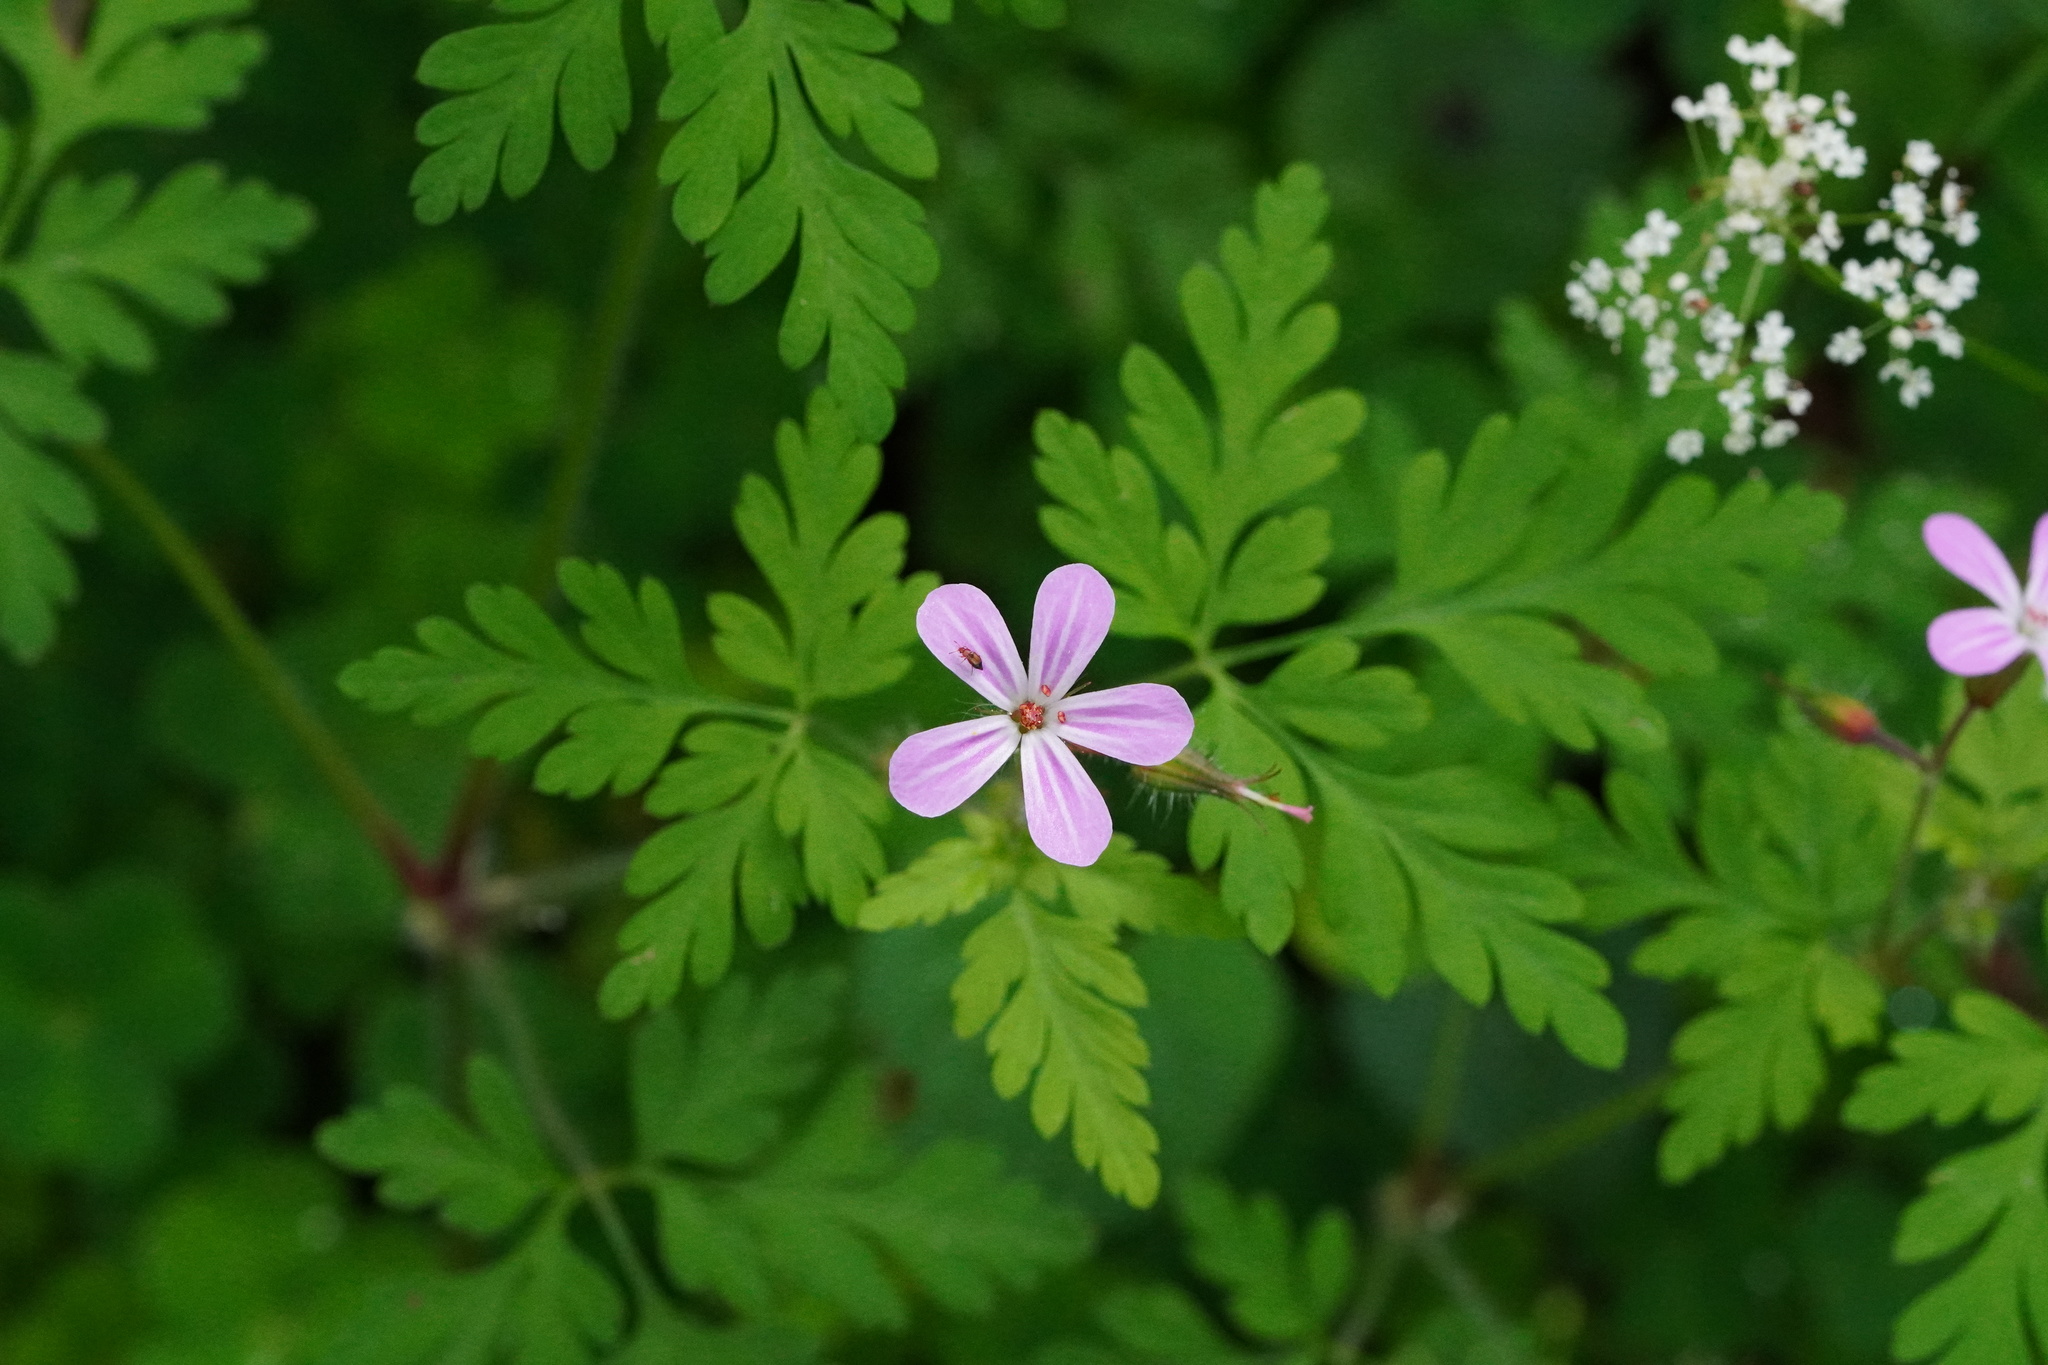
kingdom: Plantae
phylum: Tracheophyta
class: Magnoliopsida
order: Geraniales
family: Geraniaceae
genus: Geranium
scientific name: Geranium robertianum
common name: Herb-robert
